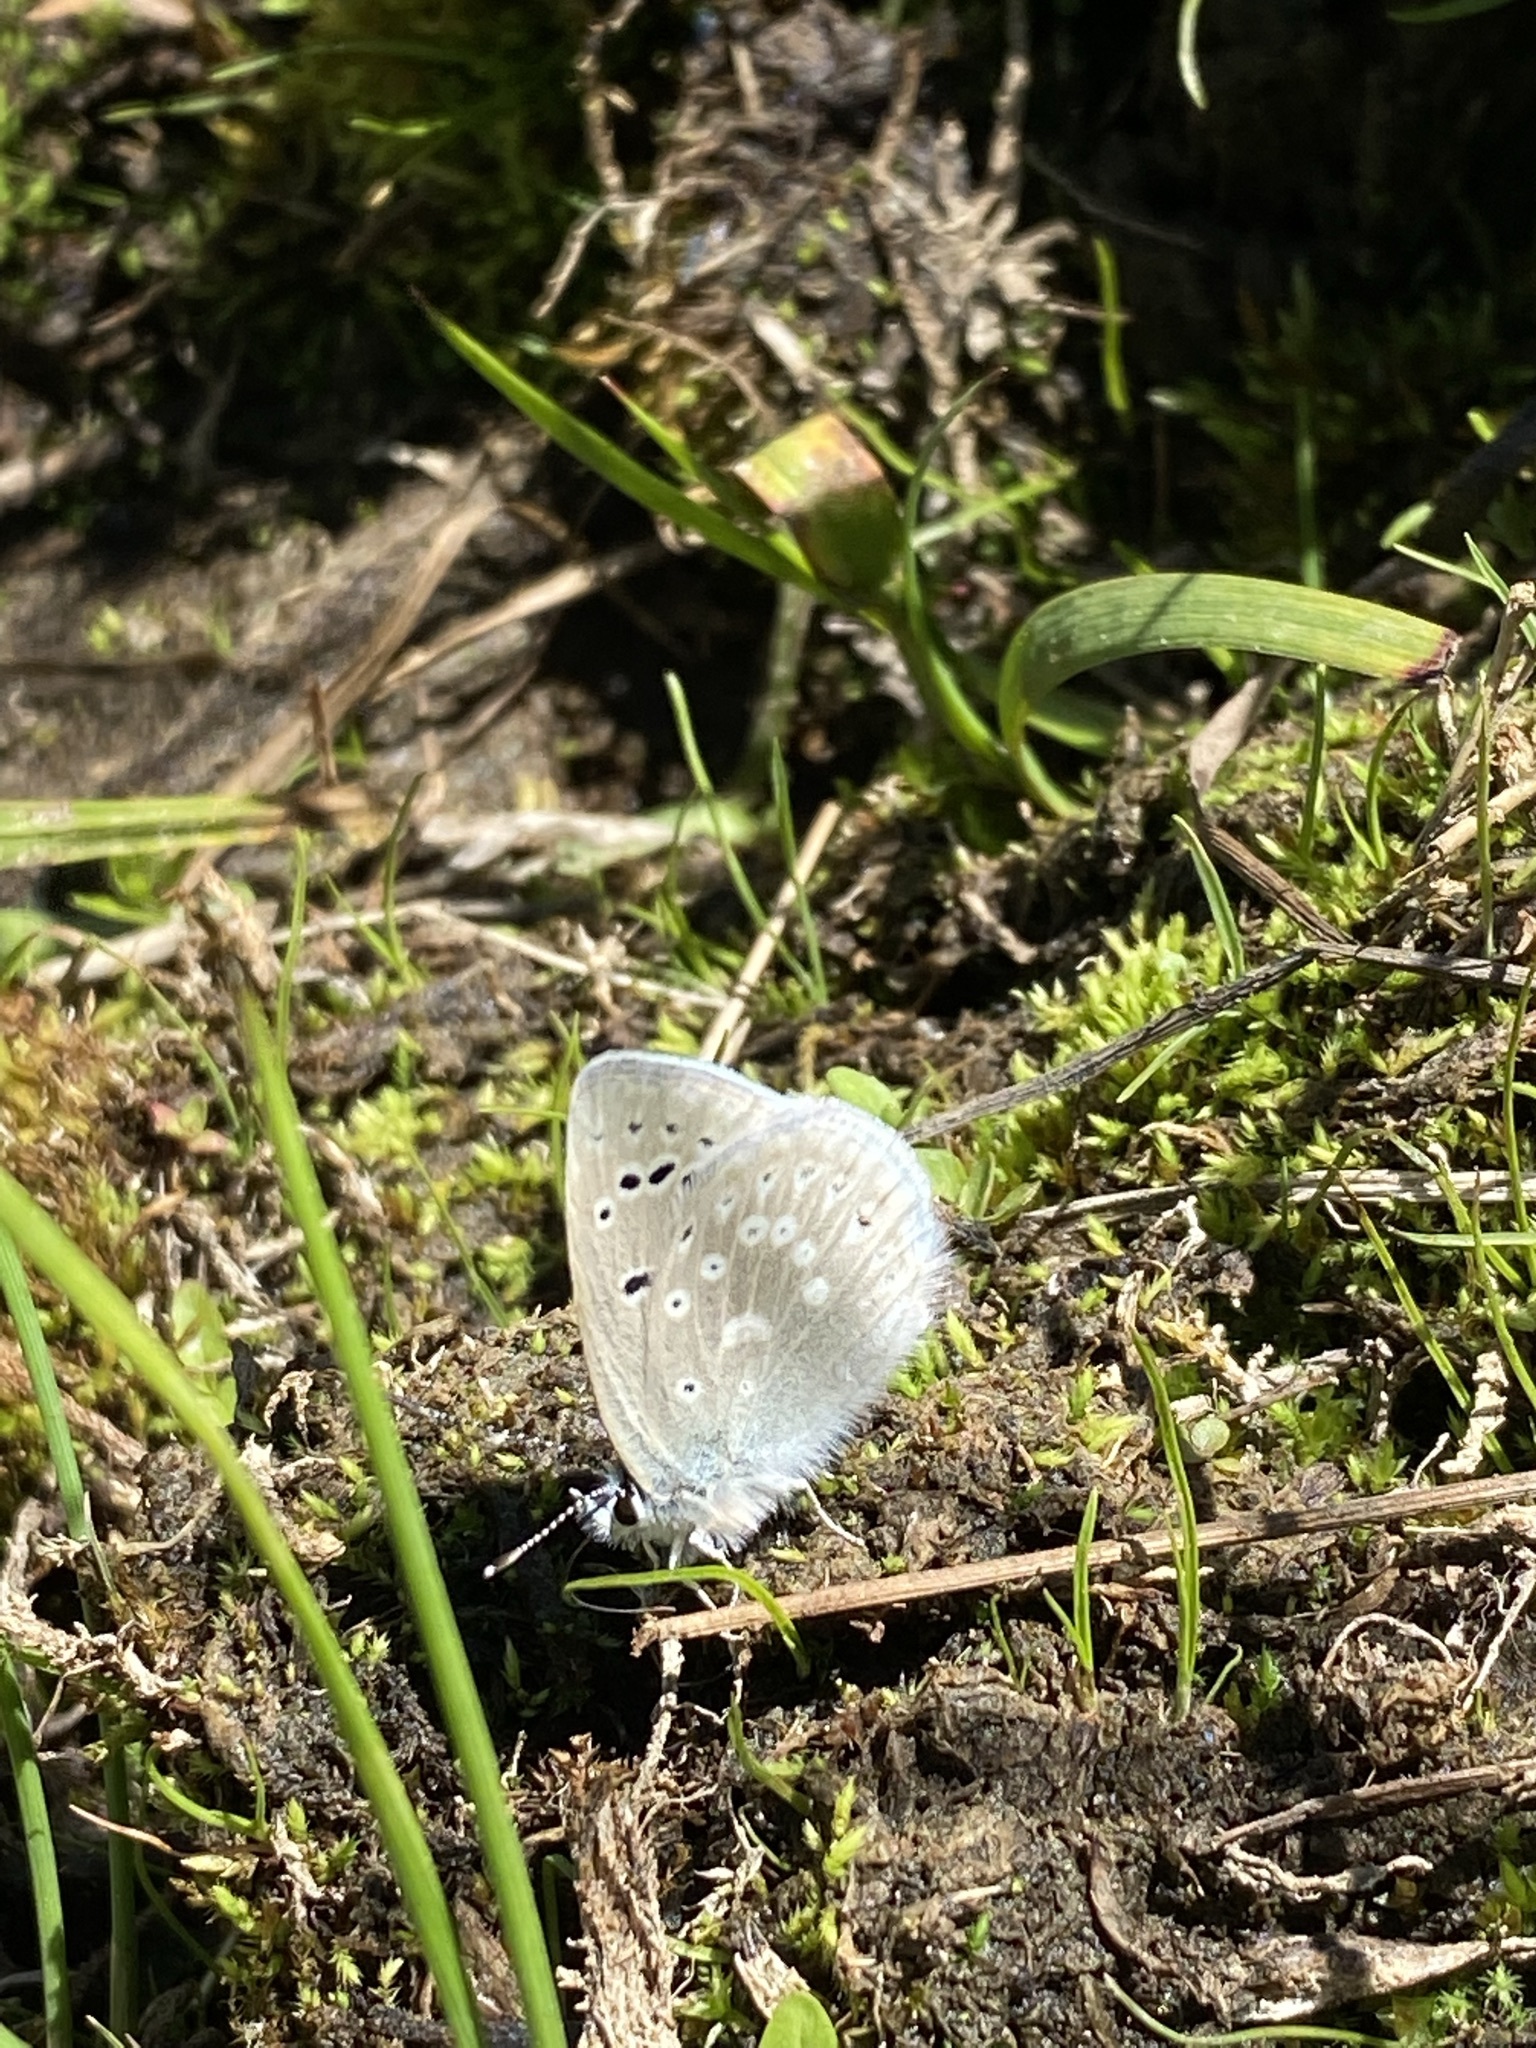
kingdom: Animalia
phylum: Arthropoda
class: Insecta
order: Lepidoptera
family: Lycaenidae
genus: Icaricia
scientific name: Icaricia icarioides
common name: Boisduval's blue
